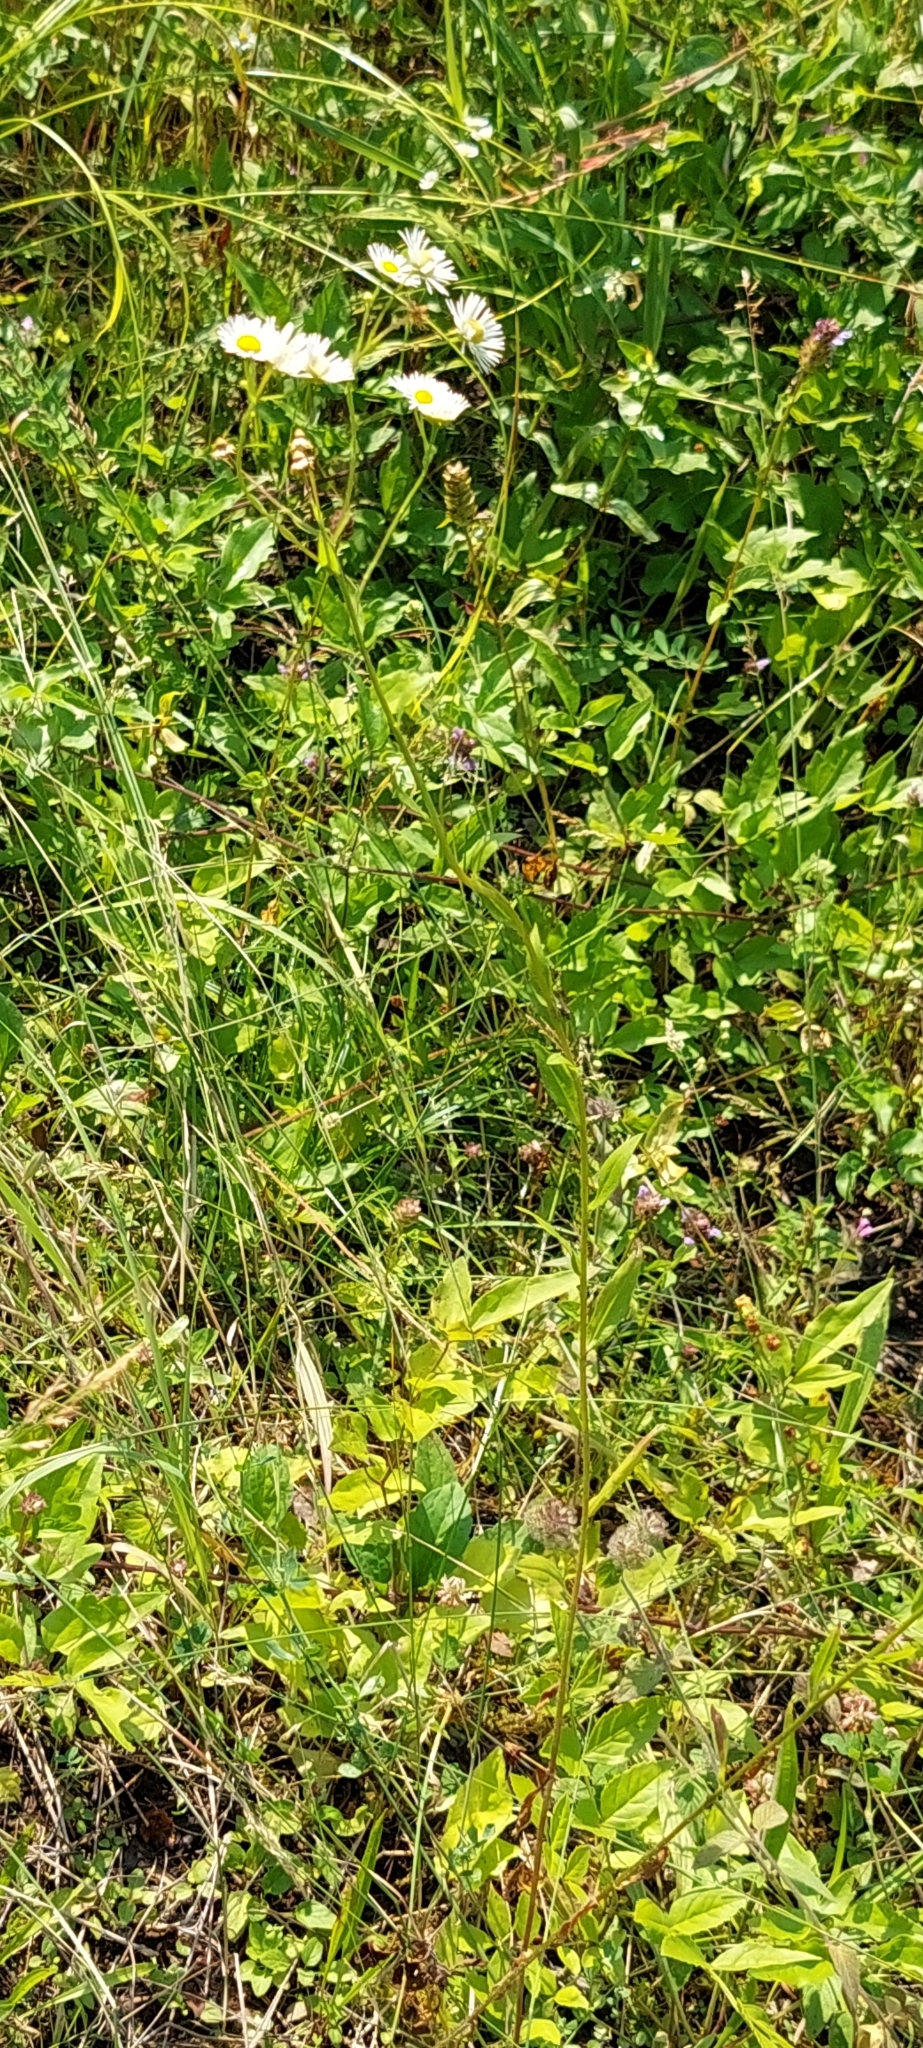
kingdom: Plantae
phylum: Tracheophyta
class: Magnoliopsida
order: Asterales
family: Asteraceae
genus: Erigeron
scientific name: Erigeron annuus
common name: Tall fleabane
